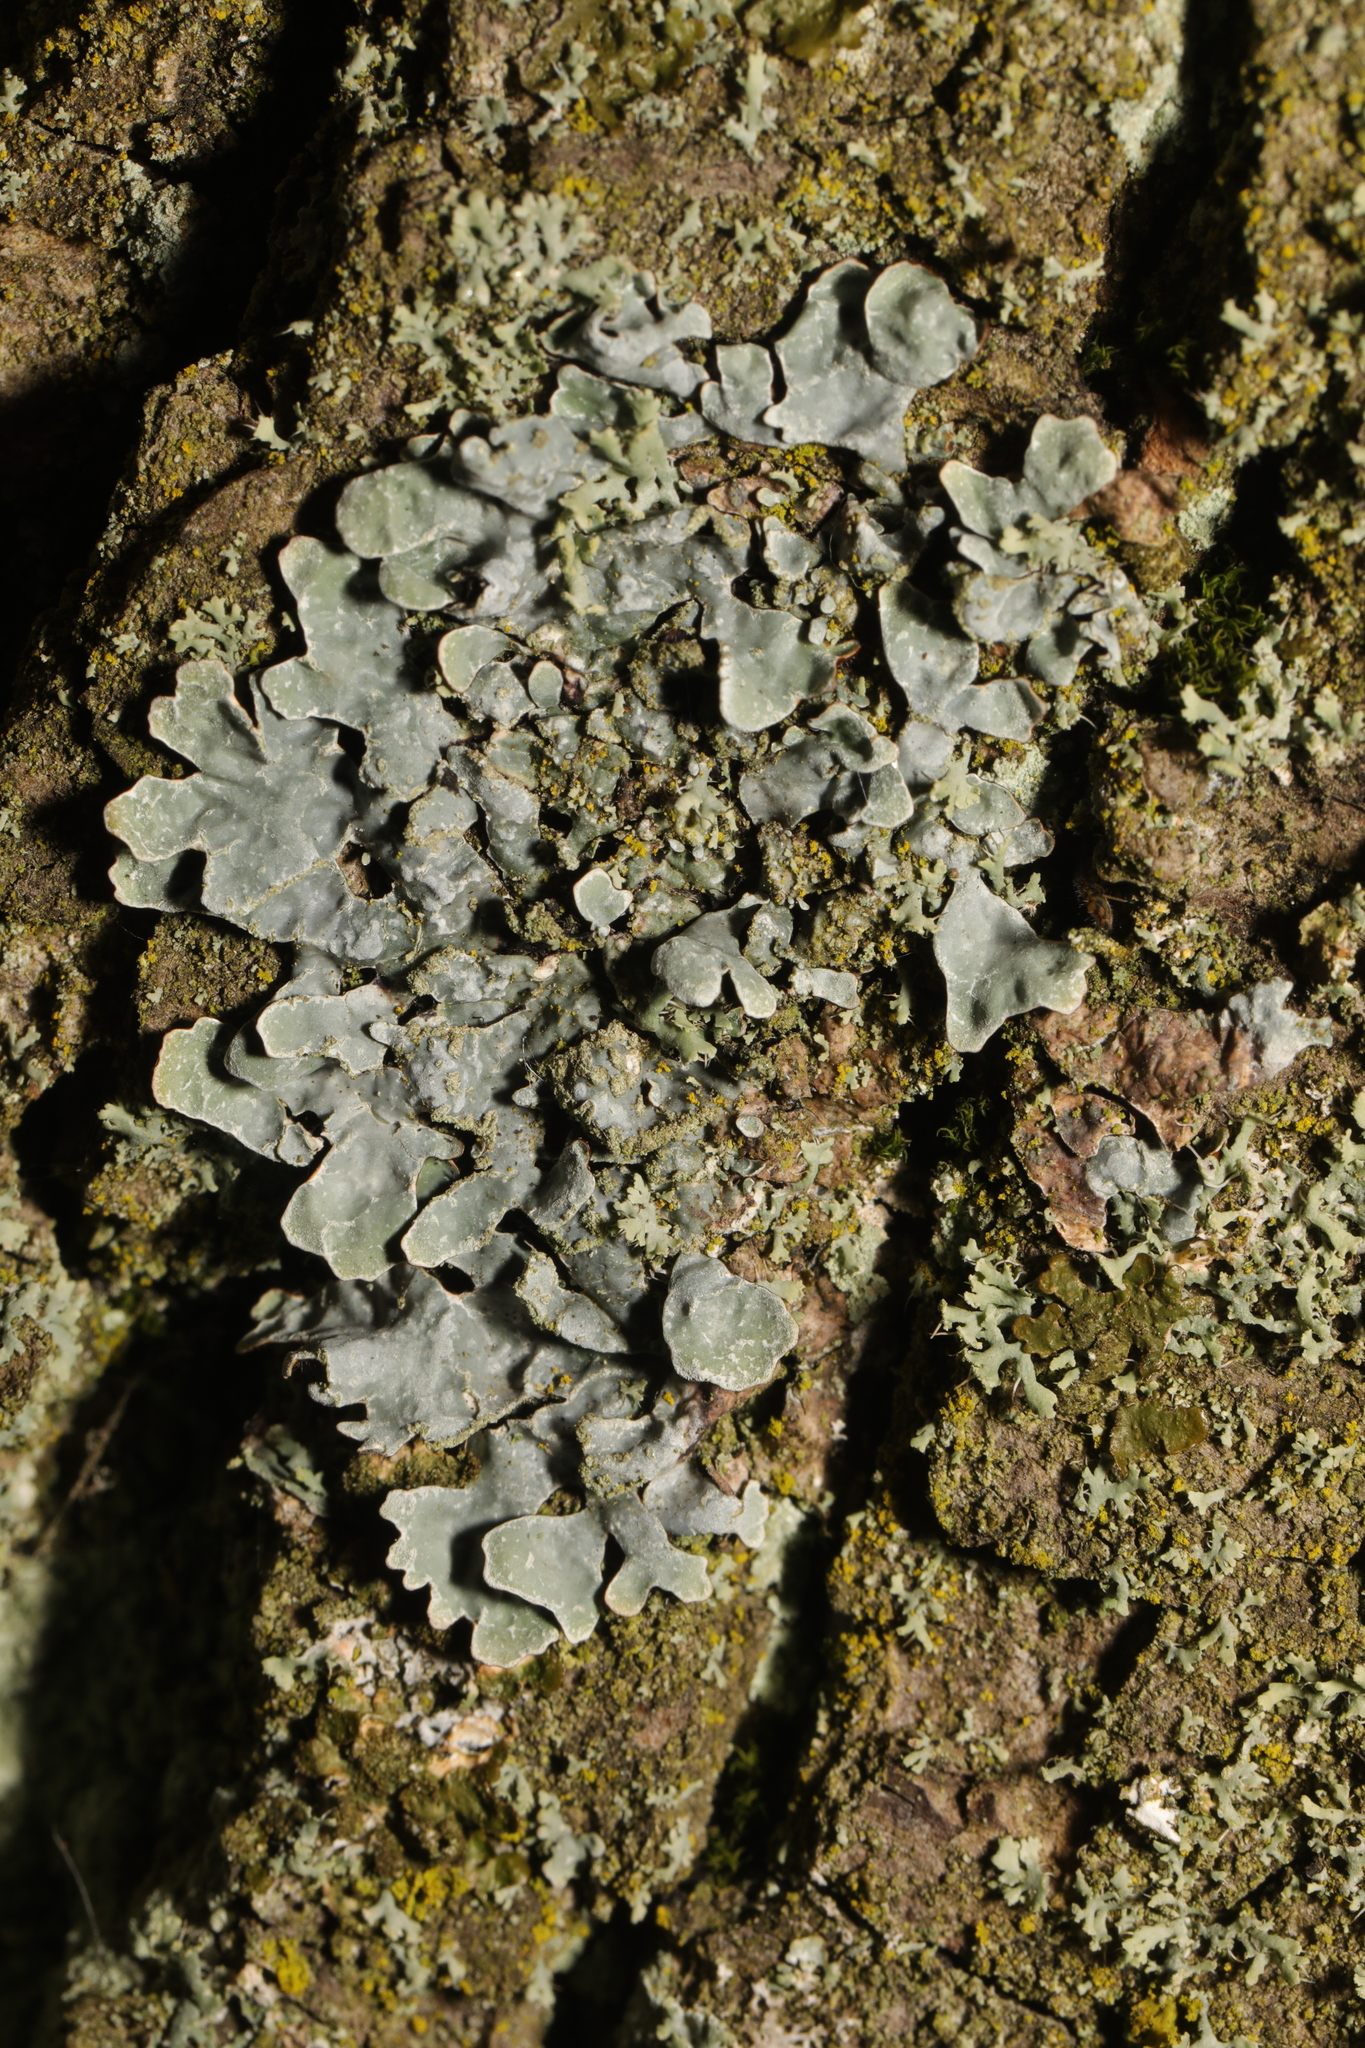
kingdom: Fungi
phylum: Ascomycota
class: Lecanoromycetes
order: Lecanorales
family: Parmeliaceae
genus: Parmelia
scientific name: Parmelia sulcata
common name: Netted shield lichen
